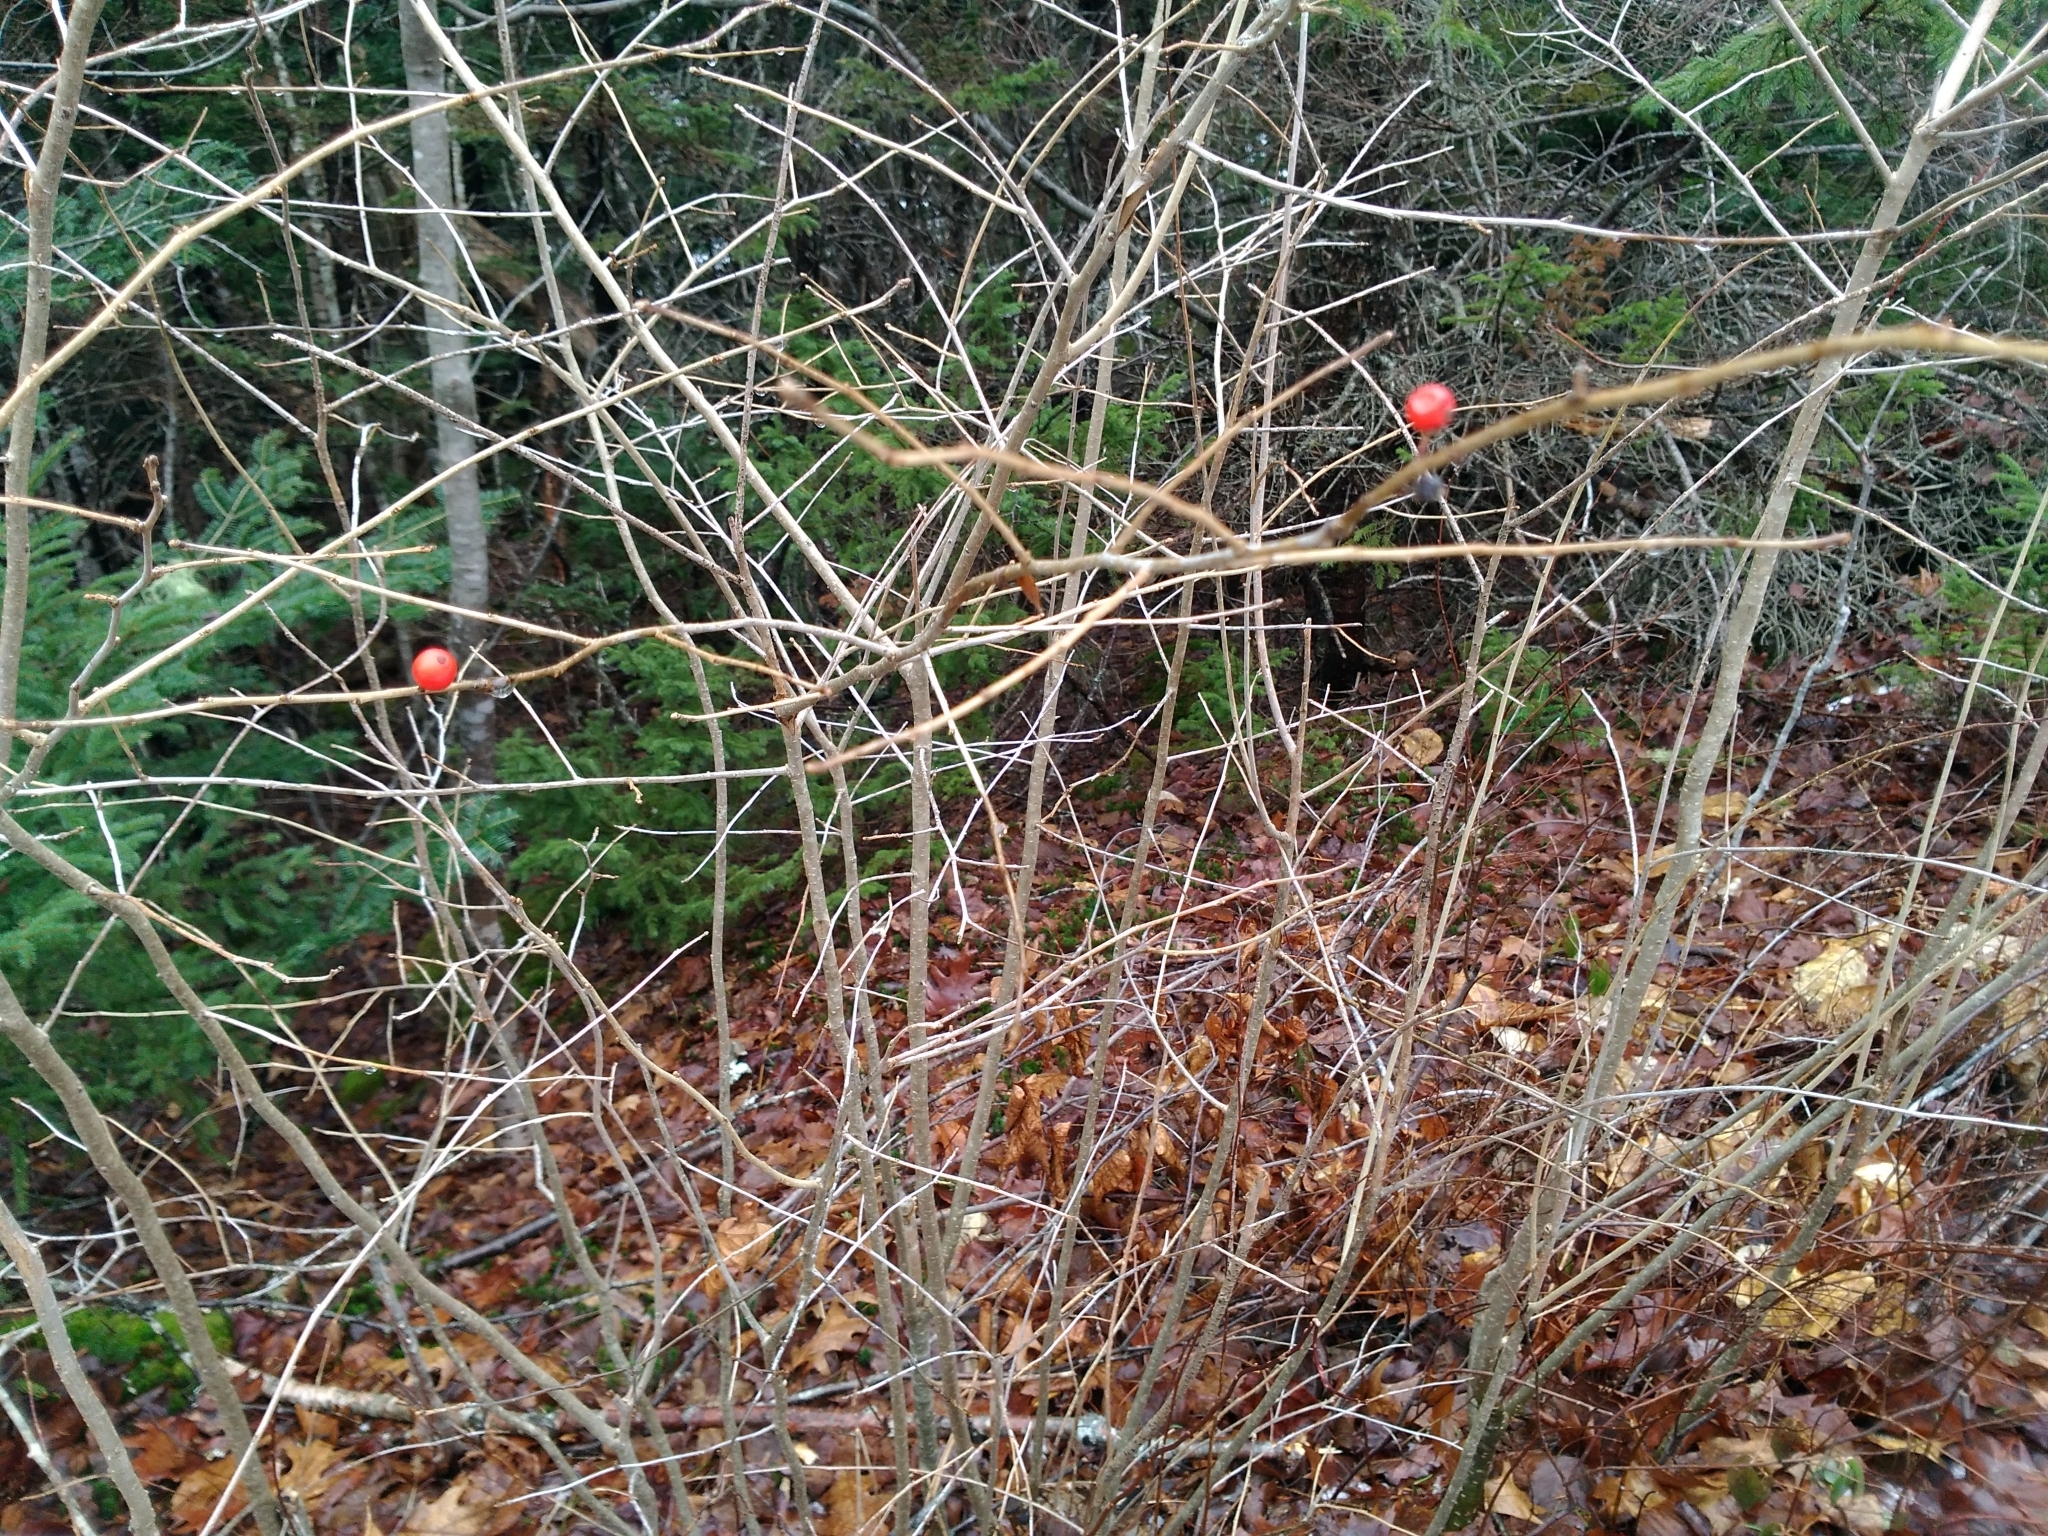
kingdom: Plantae
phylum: Tracheophyta
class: Magnoliopsida
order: Aquifoliales
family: Aquifoliaceae
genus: Ilex
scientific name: Ilex verticillata
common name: Virginia winterberry
